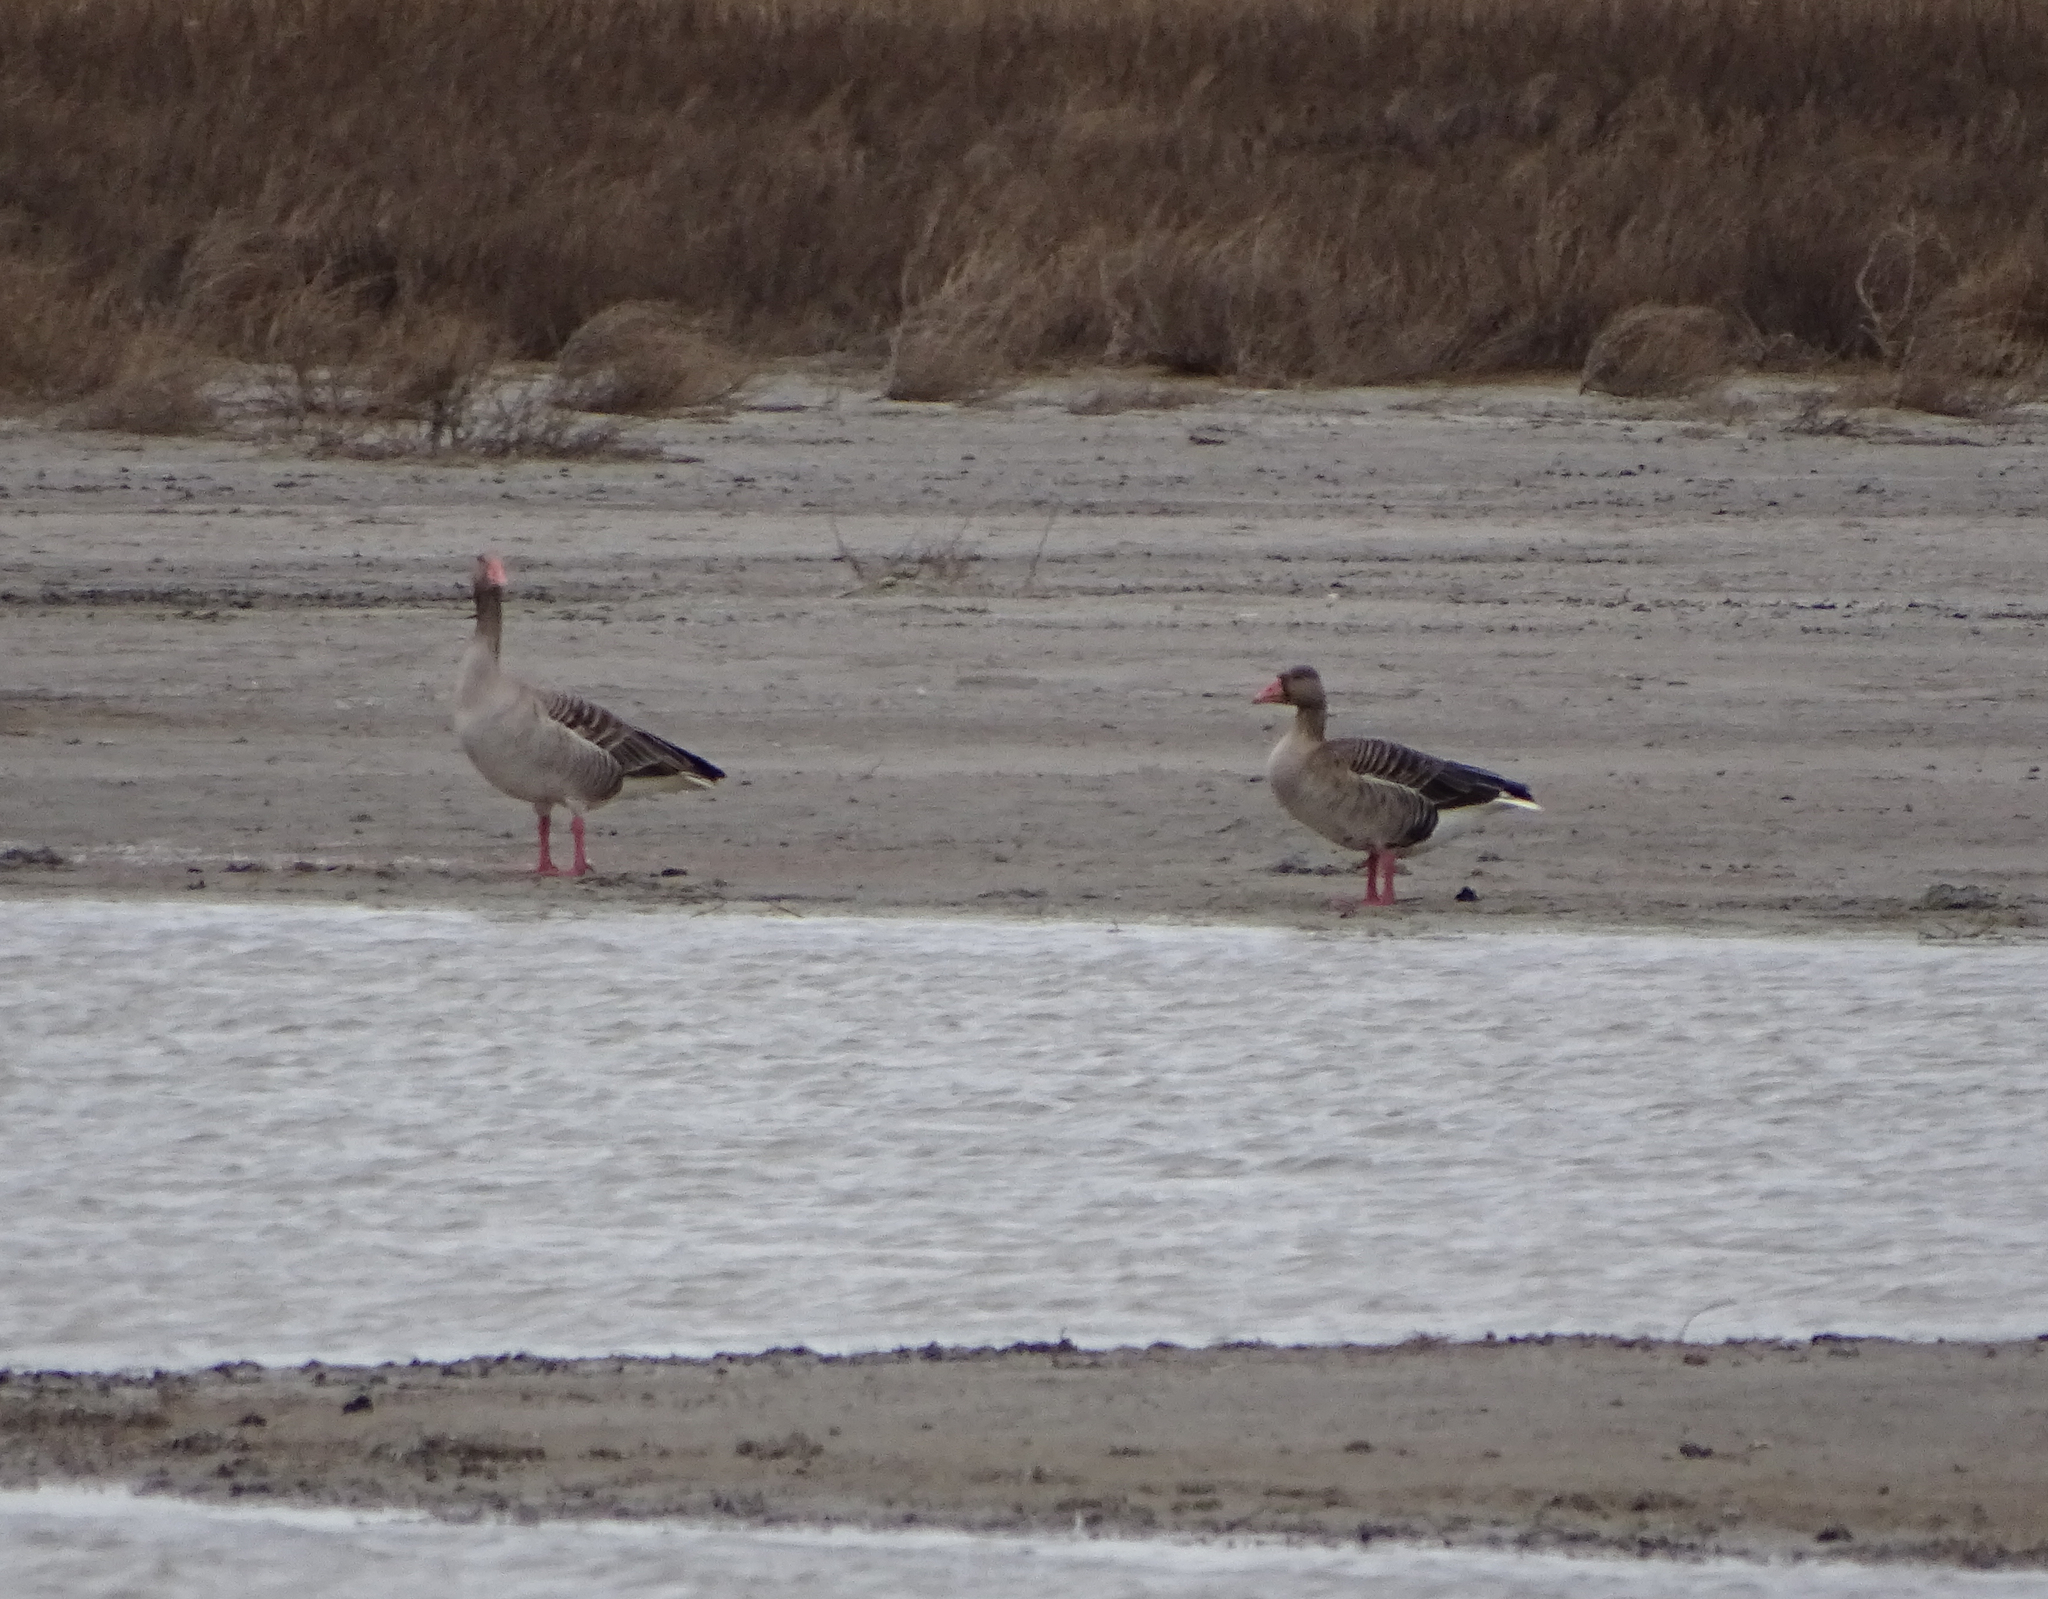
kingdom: Animalia
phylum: Chordata
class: Aves
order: Anseriformes
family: Anatidae
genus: Anser
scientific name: Anser anser
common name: Greylag goose
